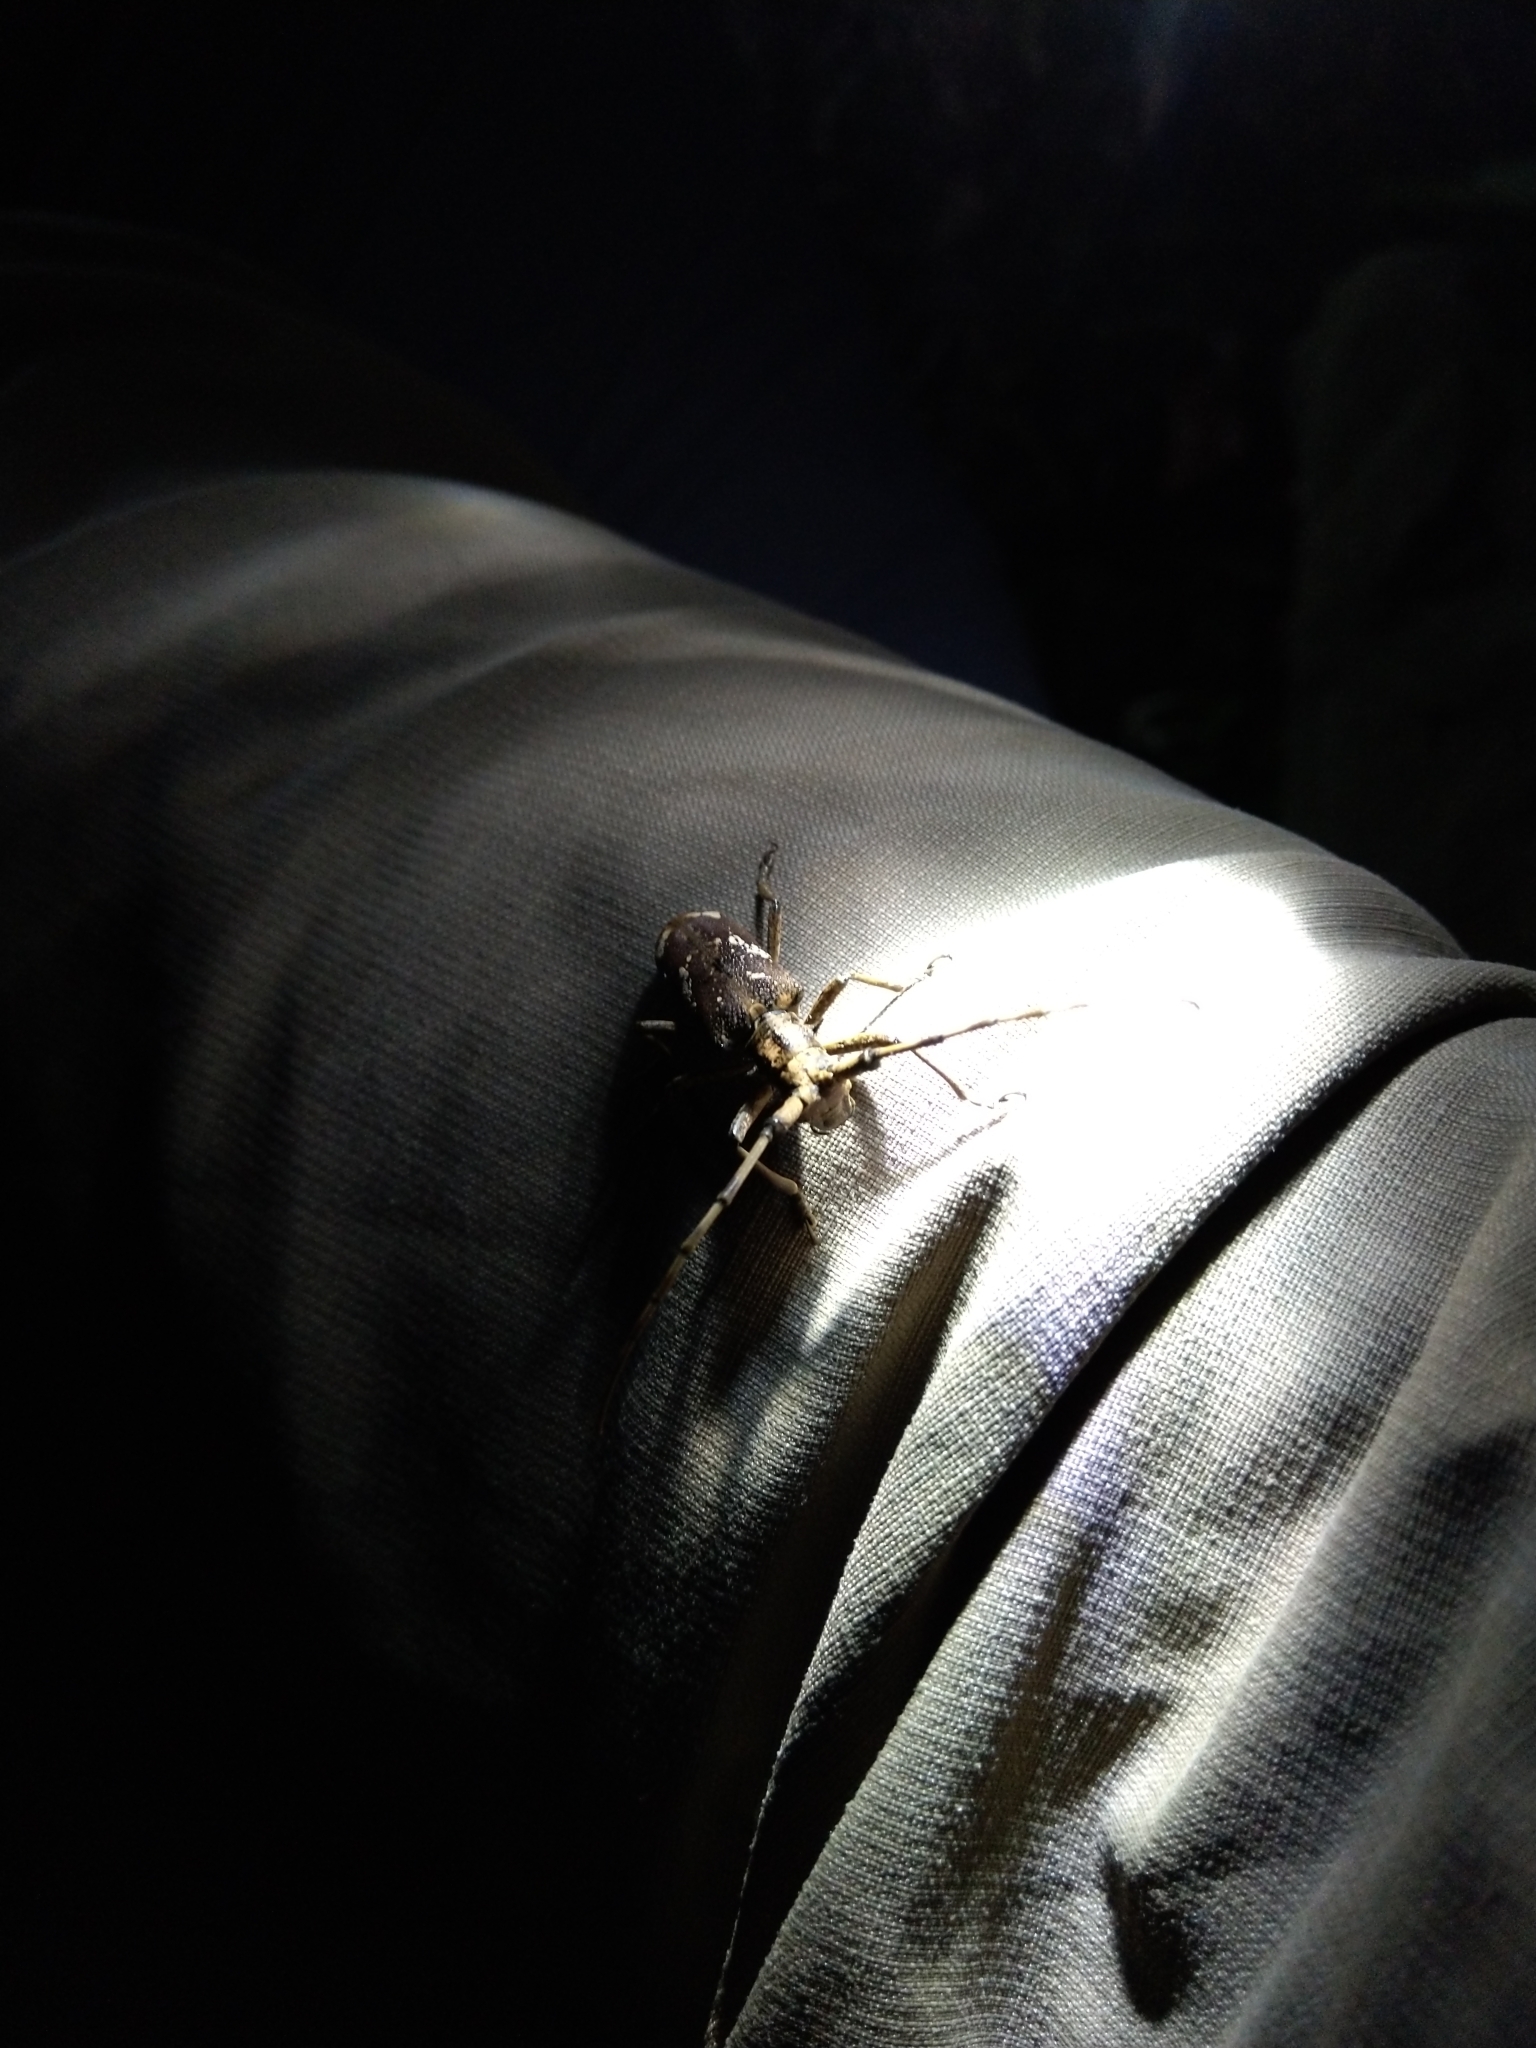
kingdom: Animalia
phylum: Arthropoda
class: Insecta
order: Coleoptera
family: Cerambycidae
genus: Paraleprodera
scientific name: Paraleprodera itzingeri
